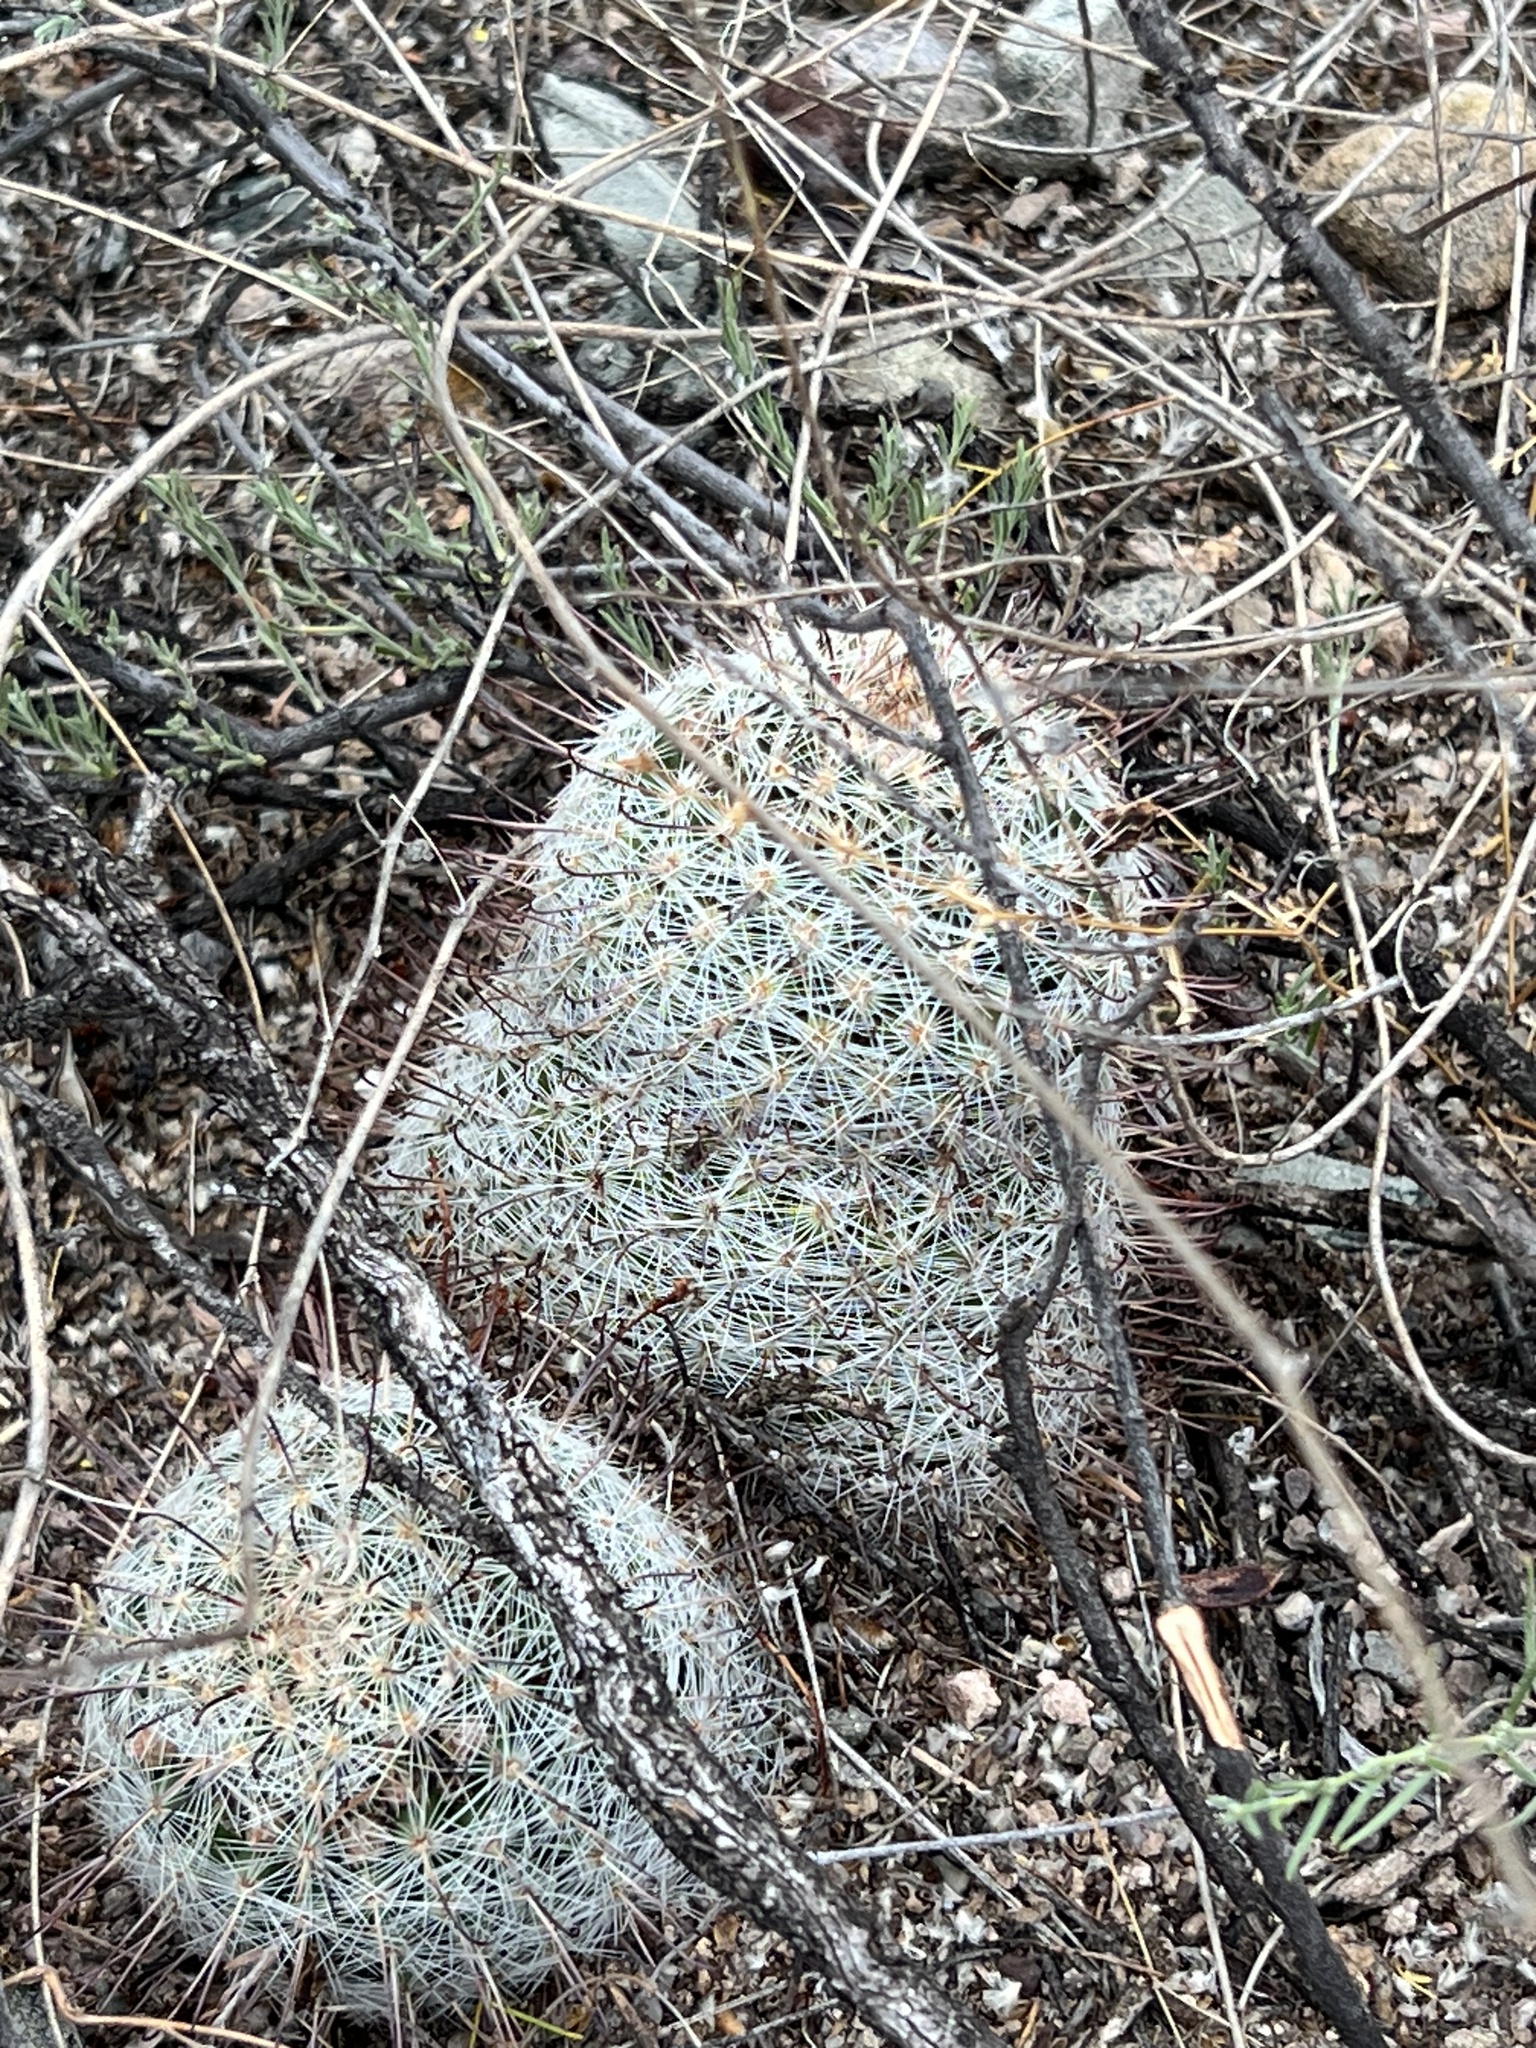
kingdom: Plantae
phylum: Tracheophyta
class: Magnoliopsida
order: Caryophyllales
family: Cactaceae
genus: Cochemiea
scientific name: Cochemiea grahamii
